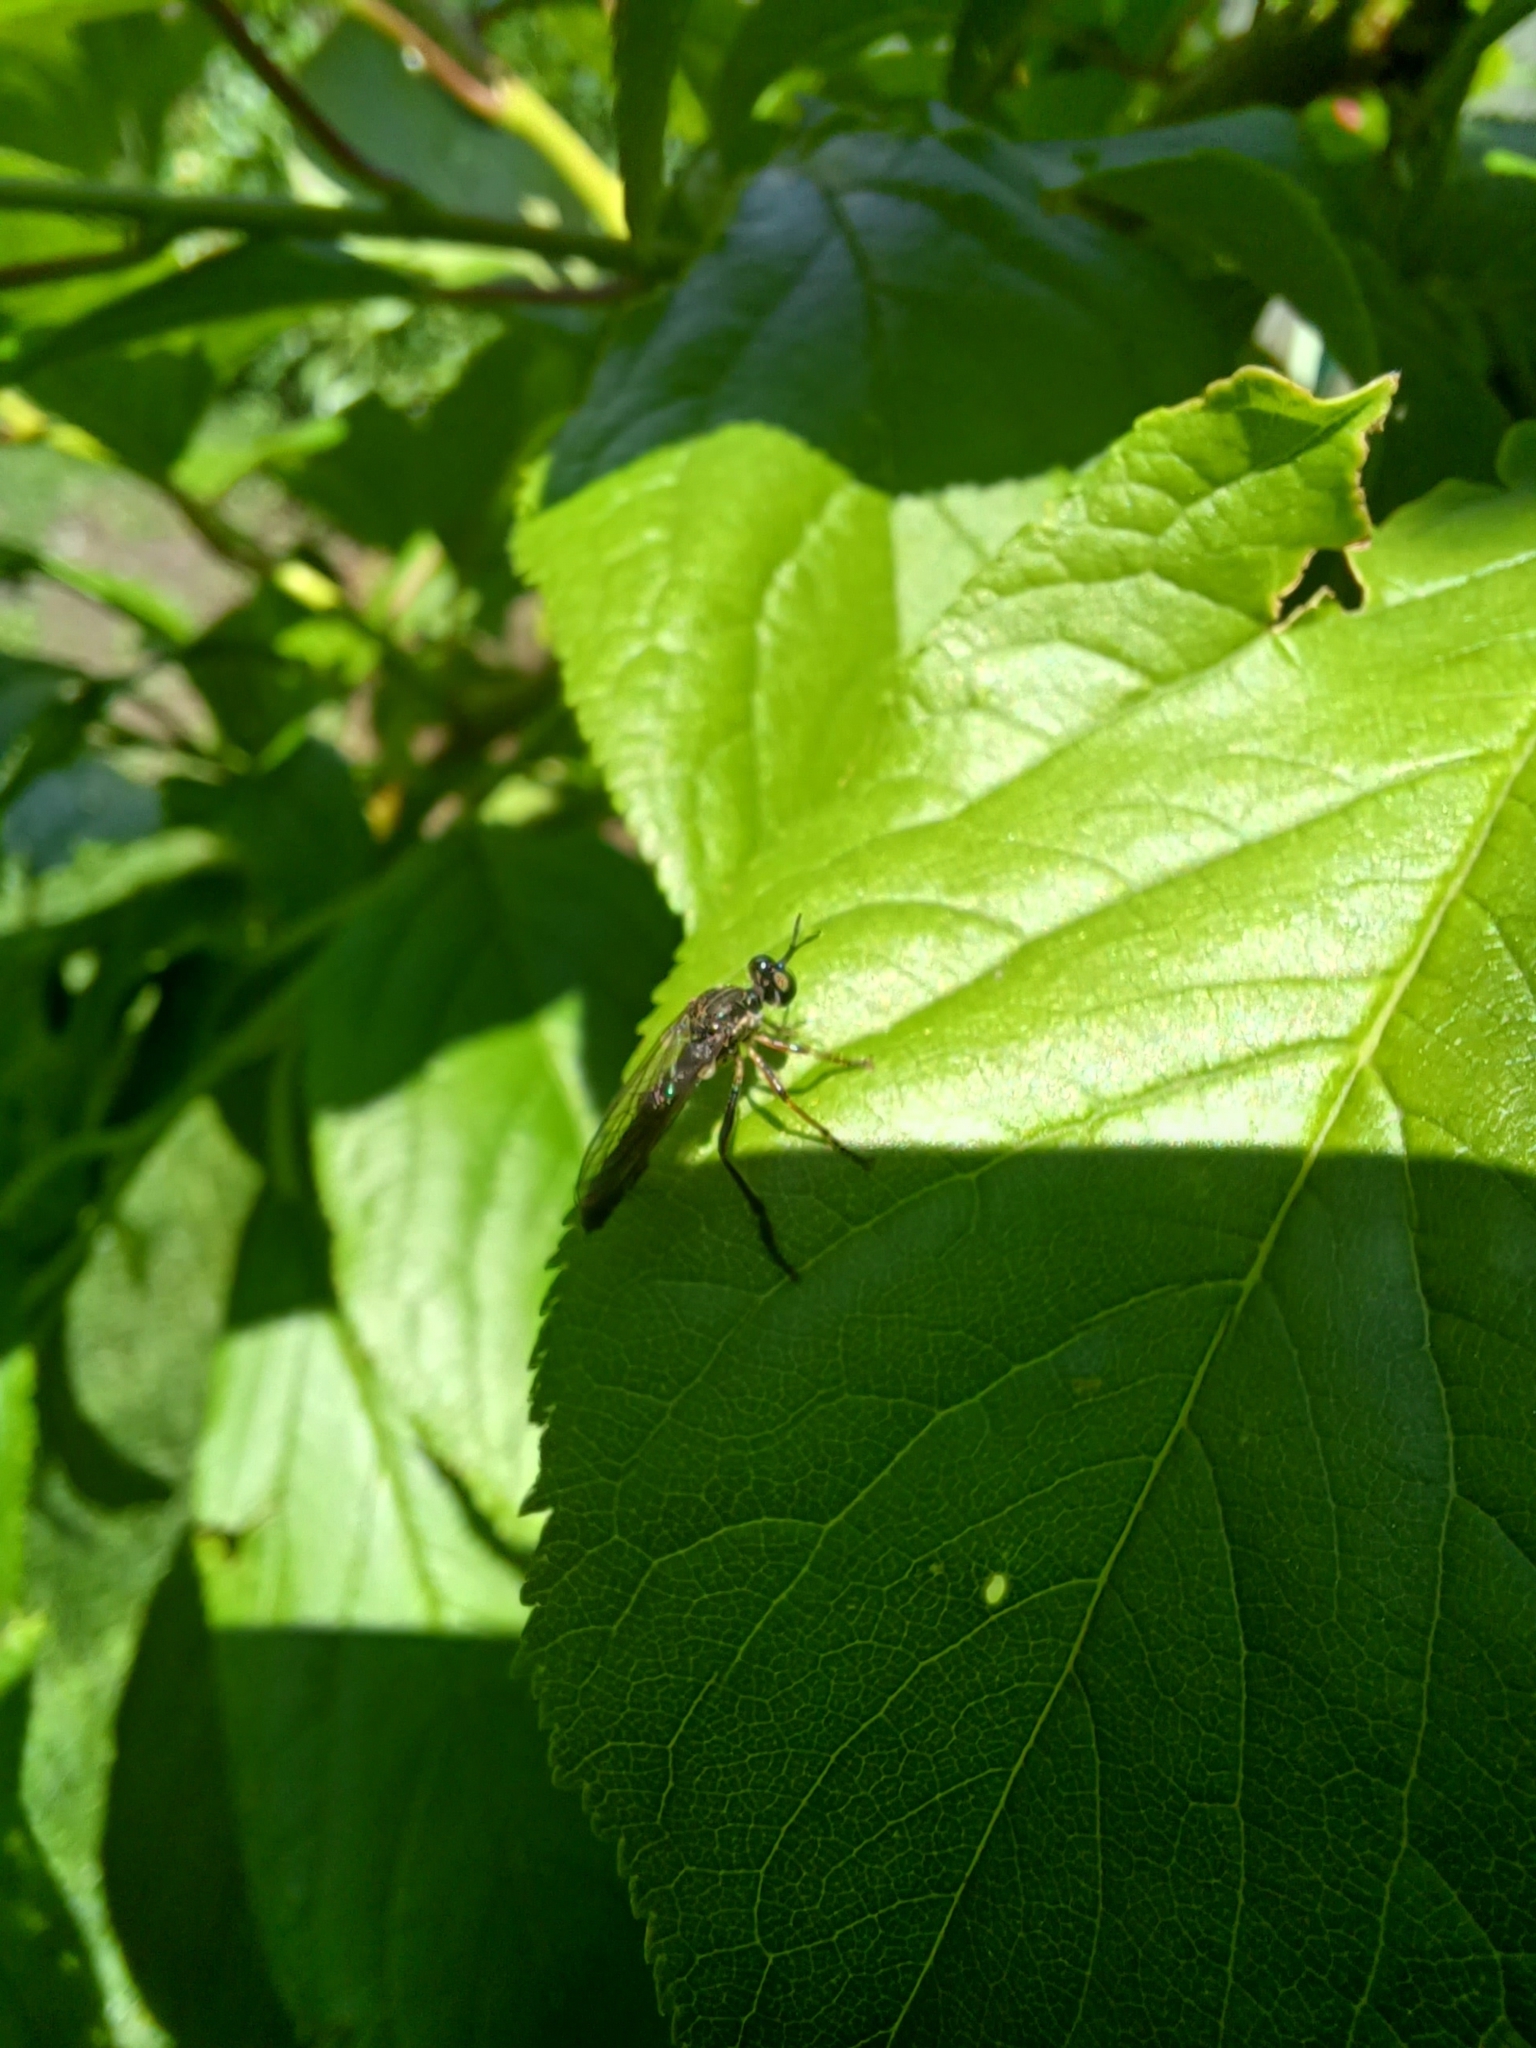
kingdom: Animalia
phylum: Arthropoda
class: Insecta
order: Diptera
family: Asilidae
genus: Dioctria
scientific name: Dioctria hyalipennis
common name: Stripe-legged robberfly
